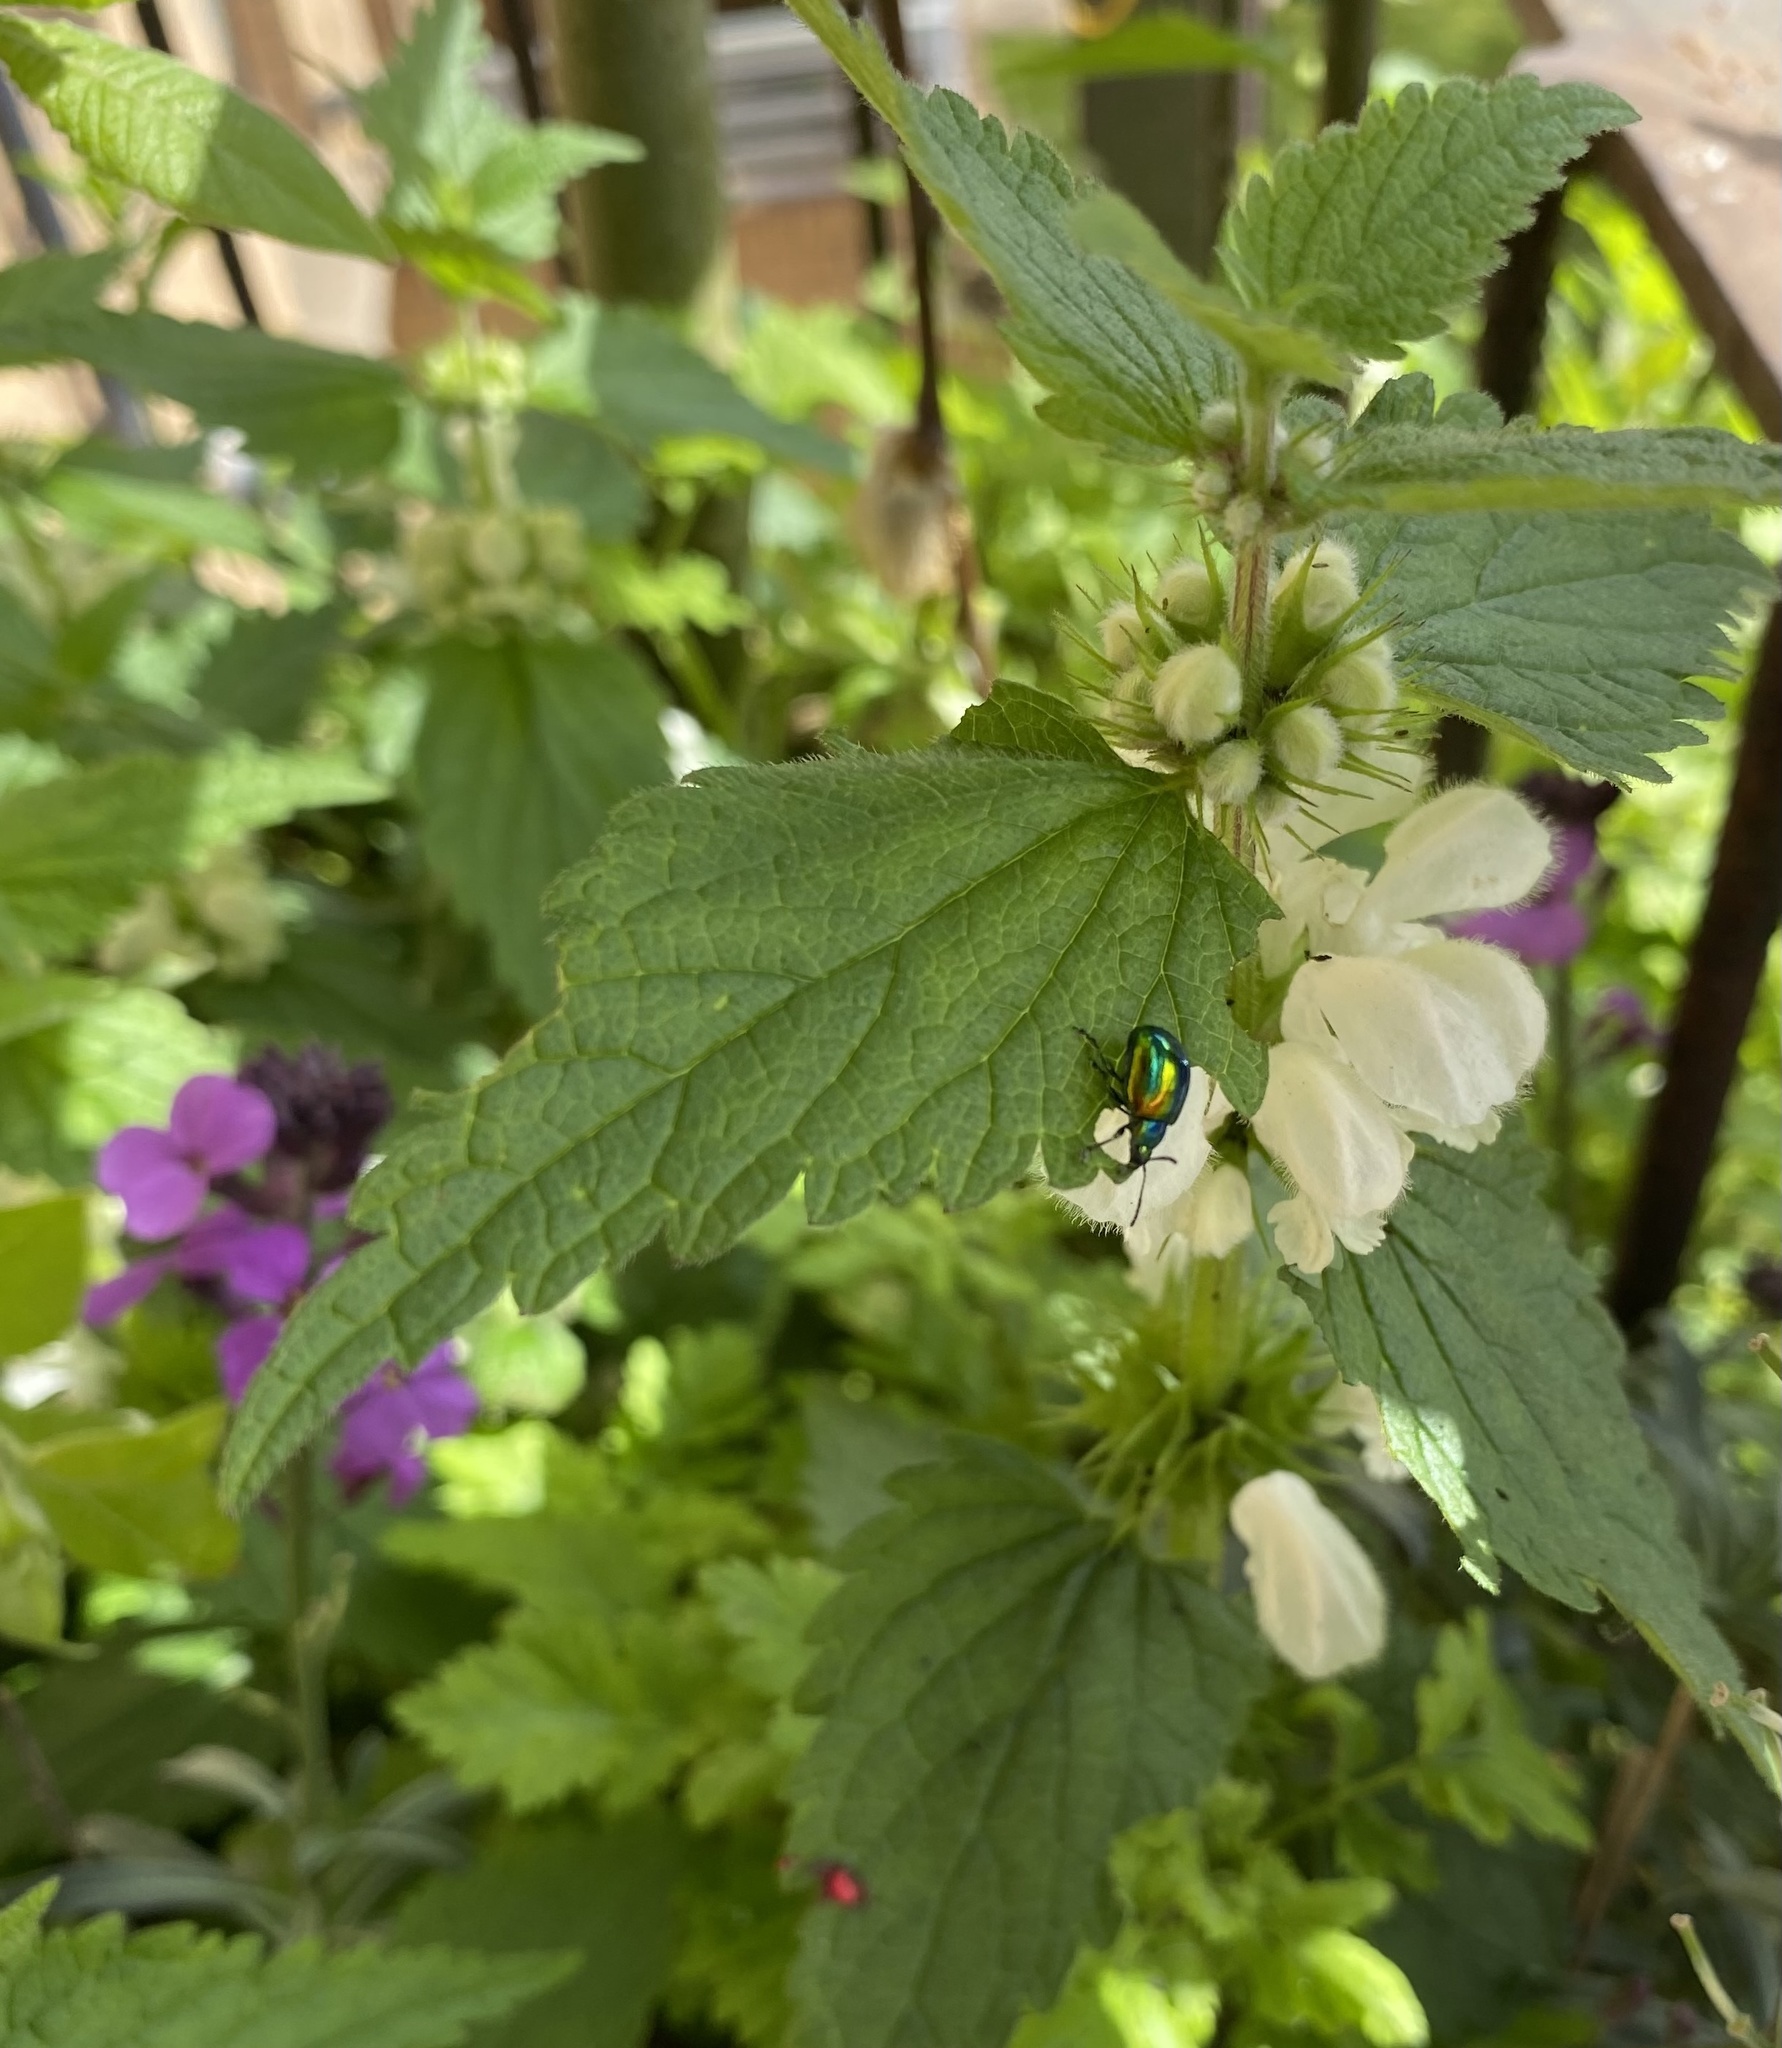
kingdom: Animalia
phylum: Arthropoda
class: Insecta
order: Coleoptera
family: Chrysomelidae
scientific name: Chrysomelidae
